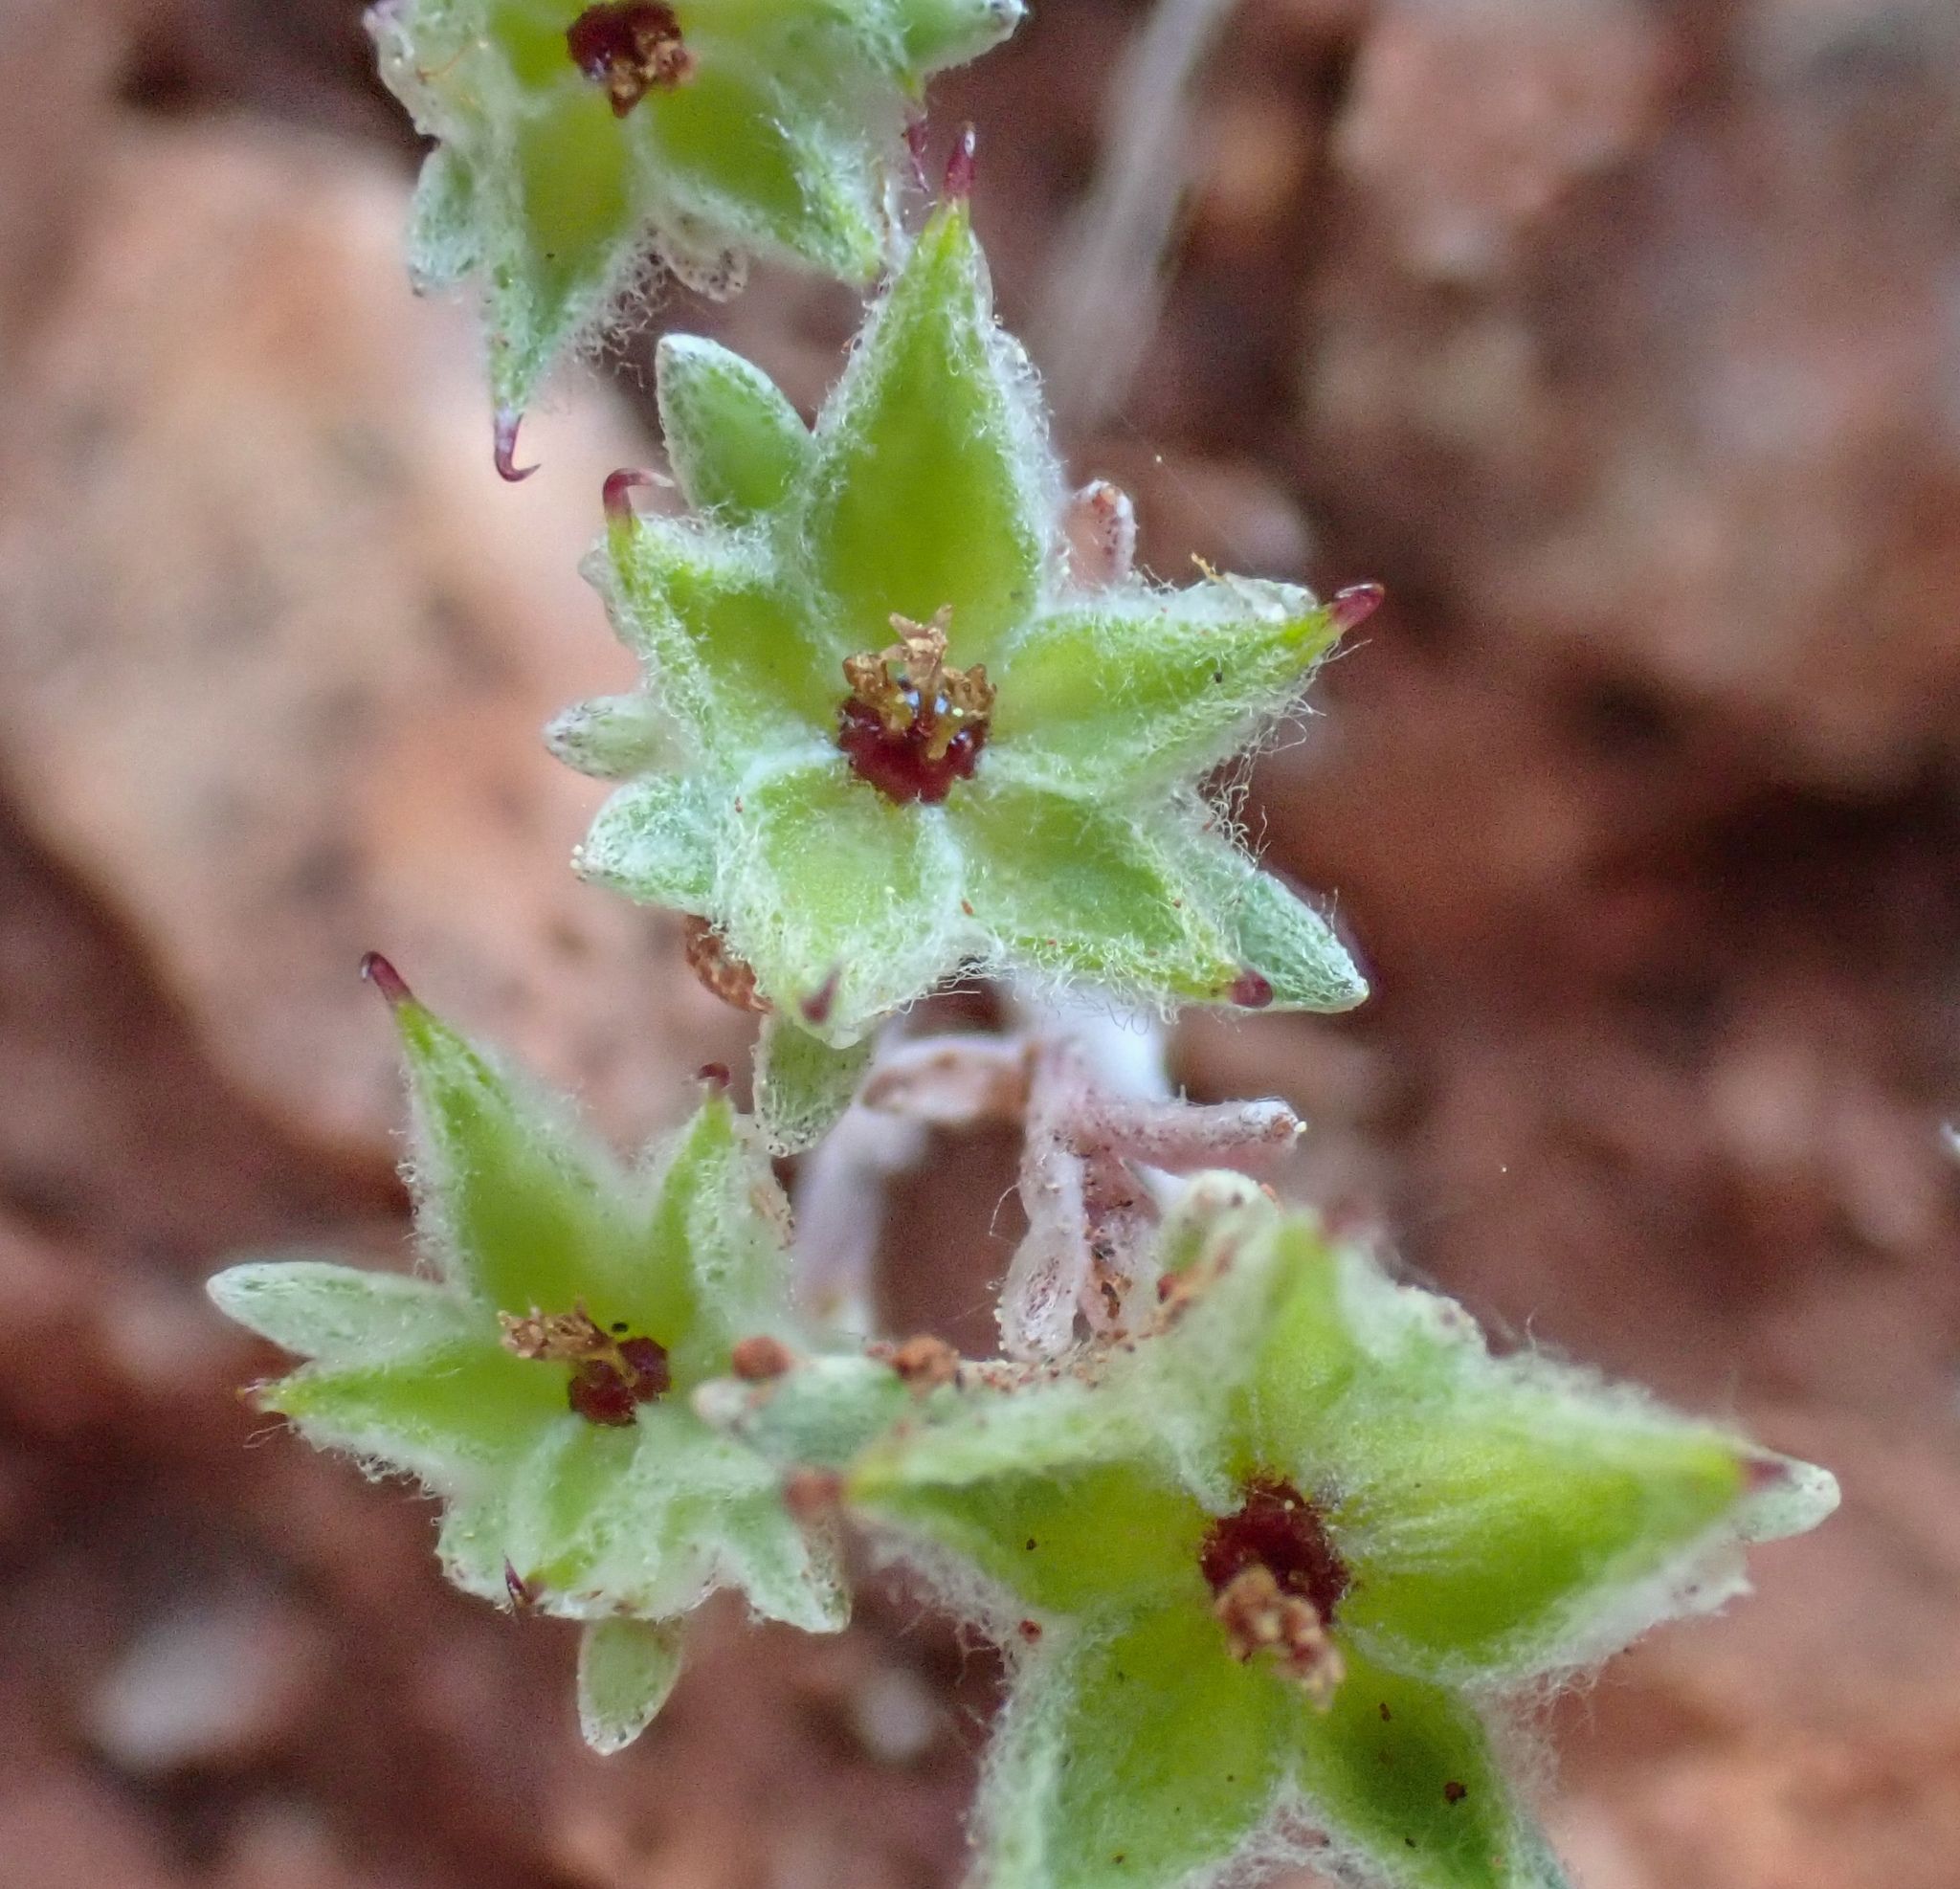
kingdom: Plantae
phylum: Tracheophyta
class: Magnoliopsida
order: Asterales
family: Asteraceae
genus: Ancistrocarphus
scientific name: Ancistrocarphus filagineus
